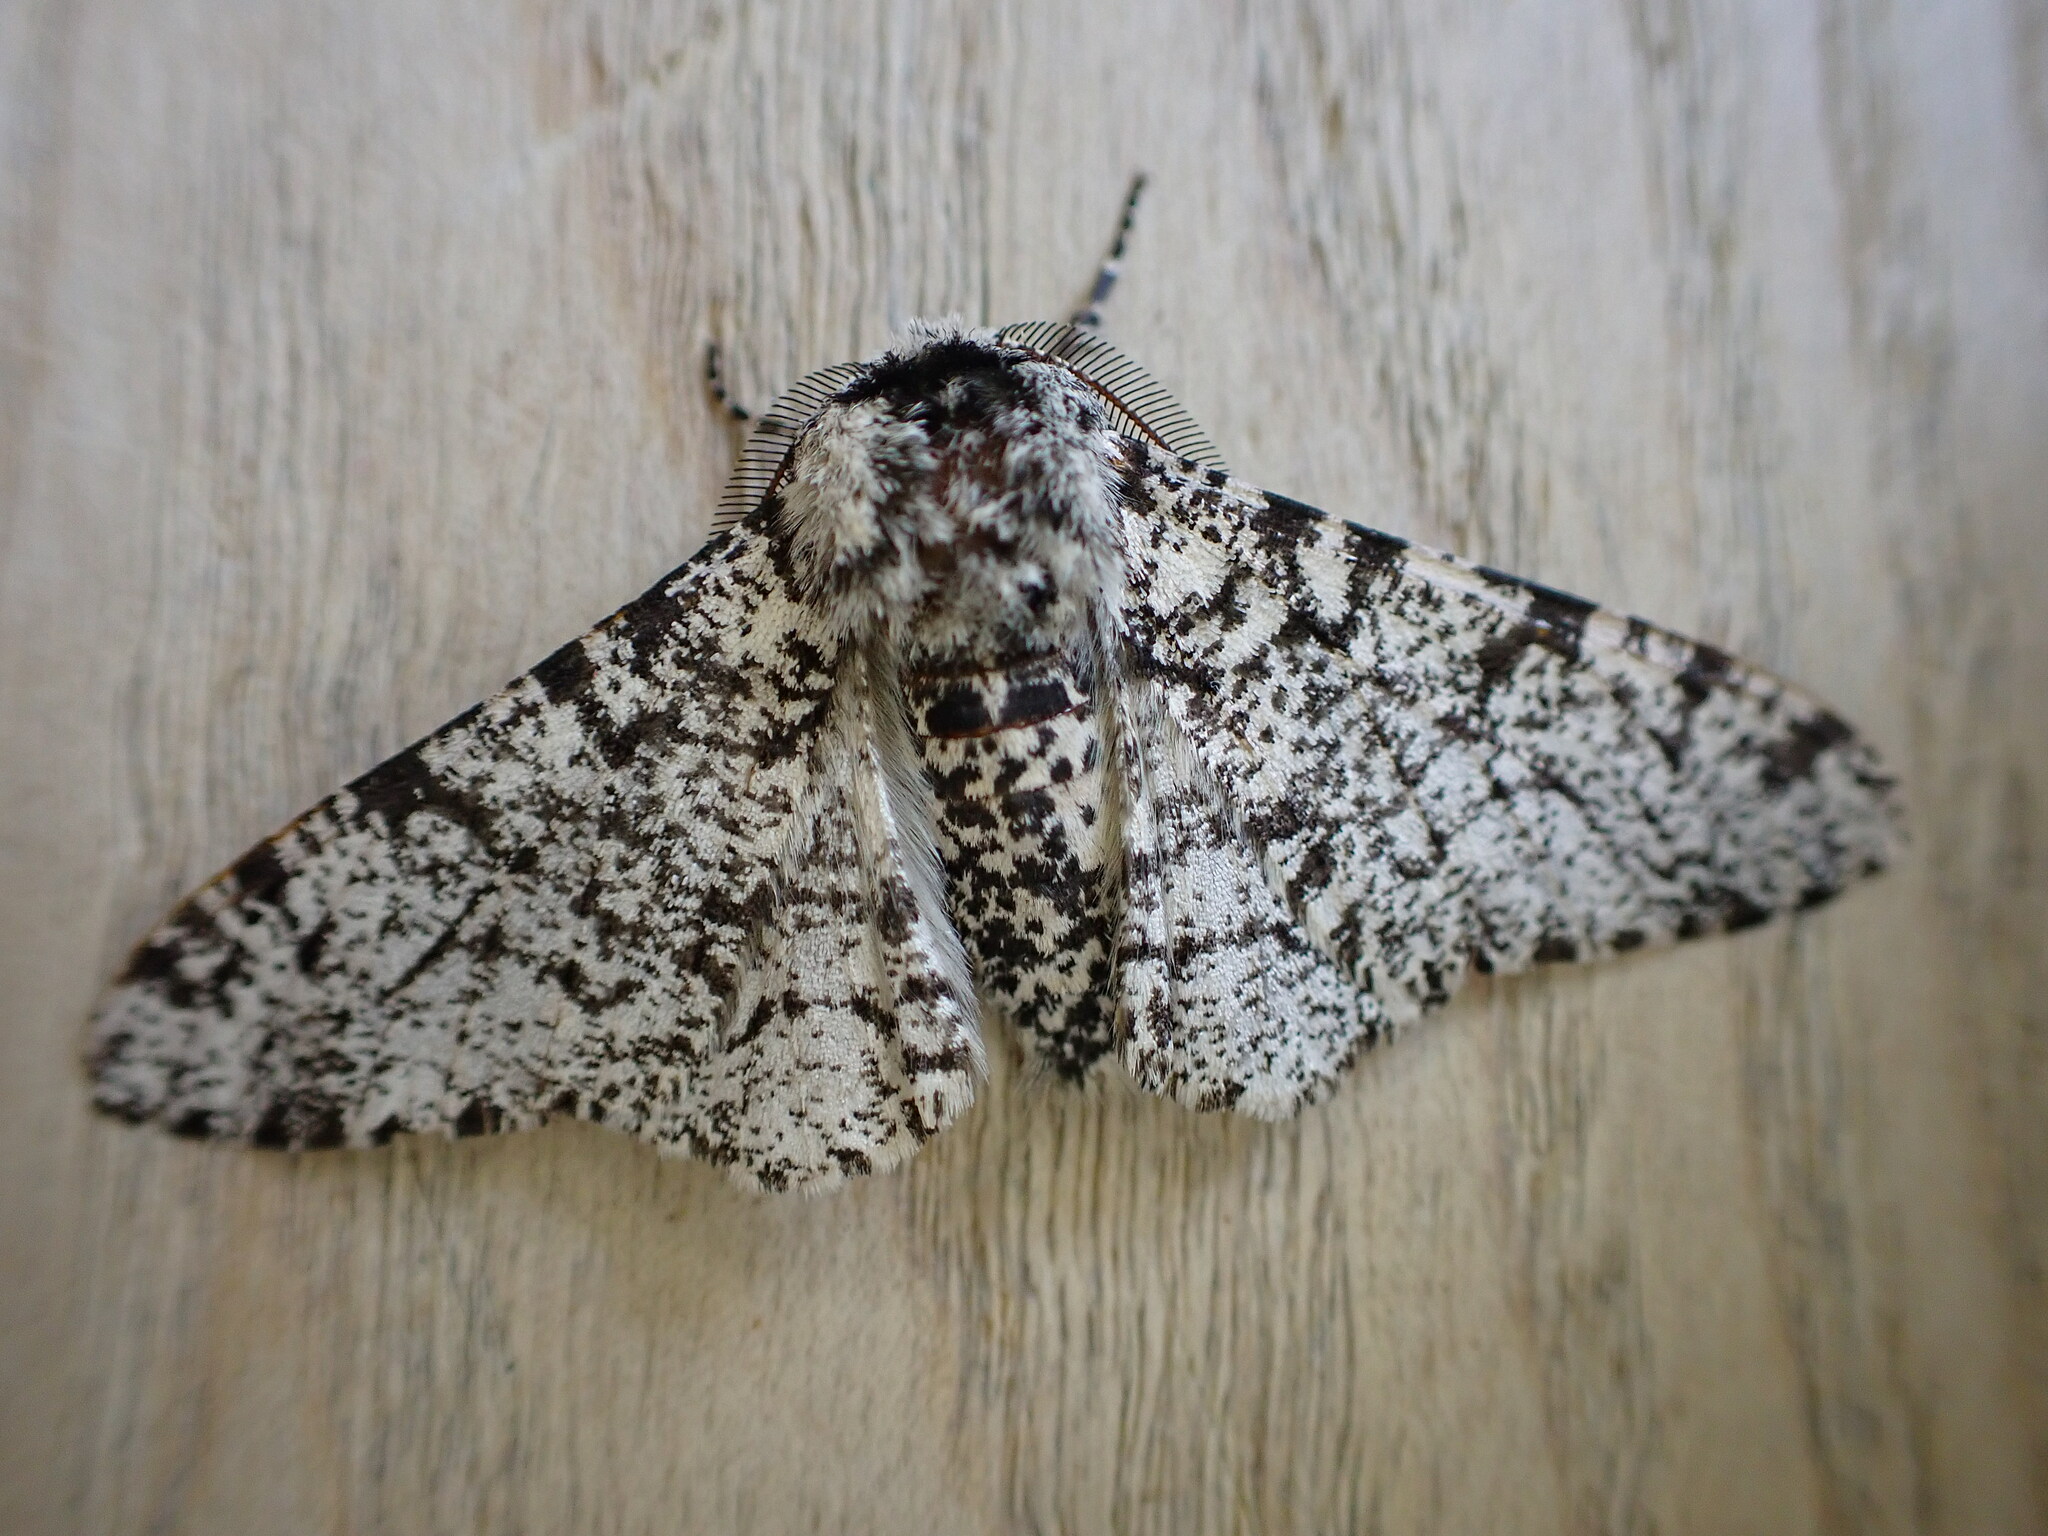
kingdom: Animalia
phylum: Arthropoda
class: Insecta
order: Lepidoptera
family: Geometridae
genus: Biston
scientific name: Biston betularia
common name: Peppered moth
